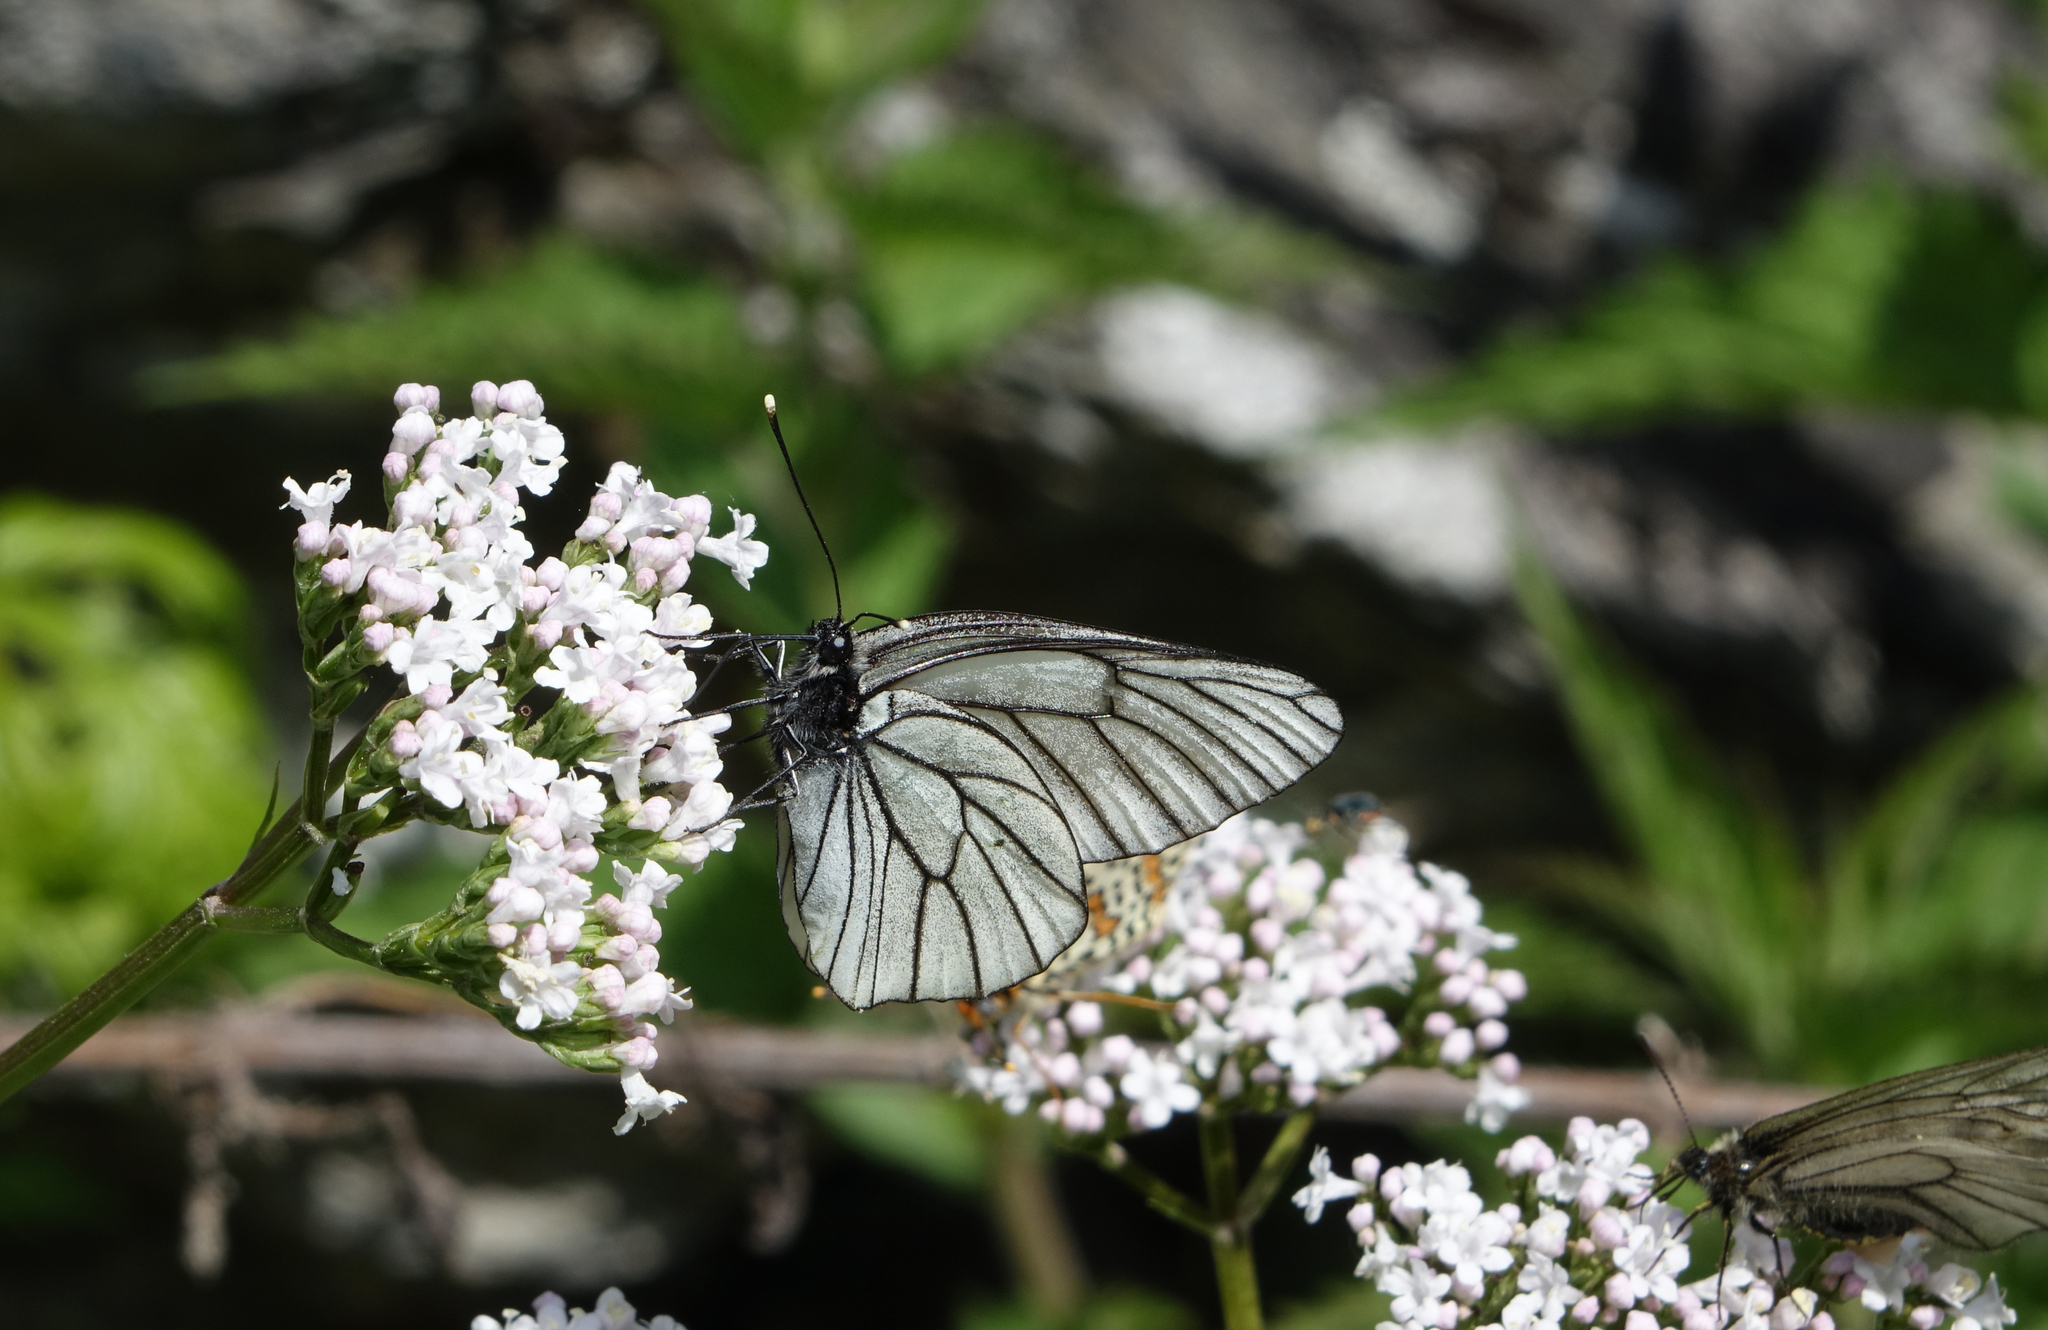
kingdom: Animalia
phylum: Arthropoda
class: Insecta
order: Lepidoptera
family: Pieridae
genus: Aporia
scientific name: Aporia crataegi
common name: Black-veined white
